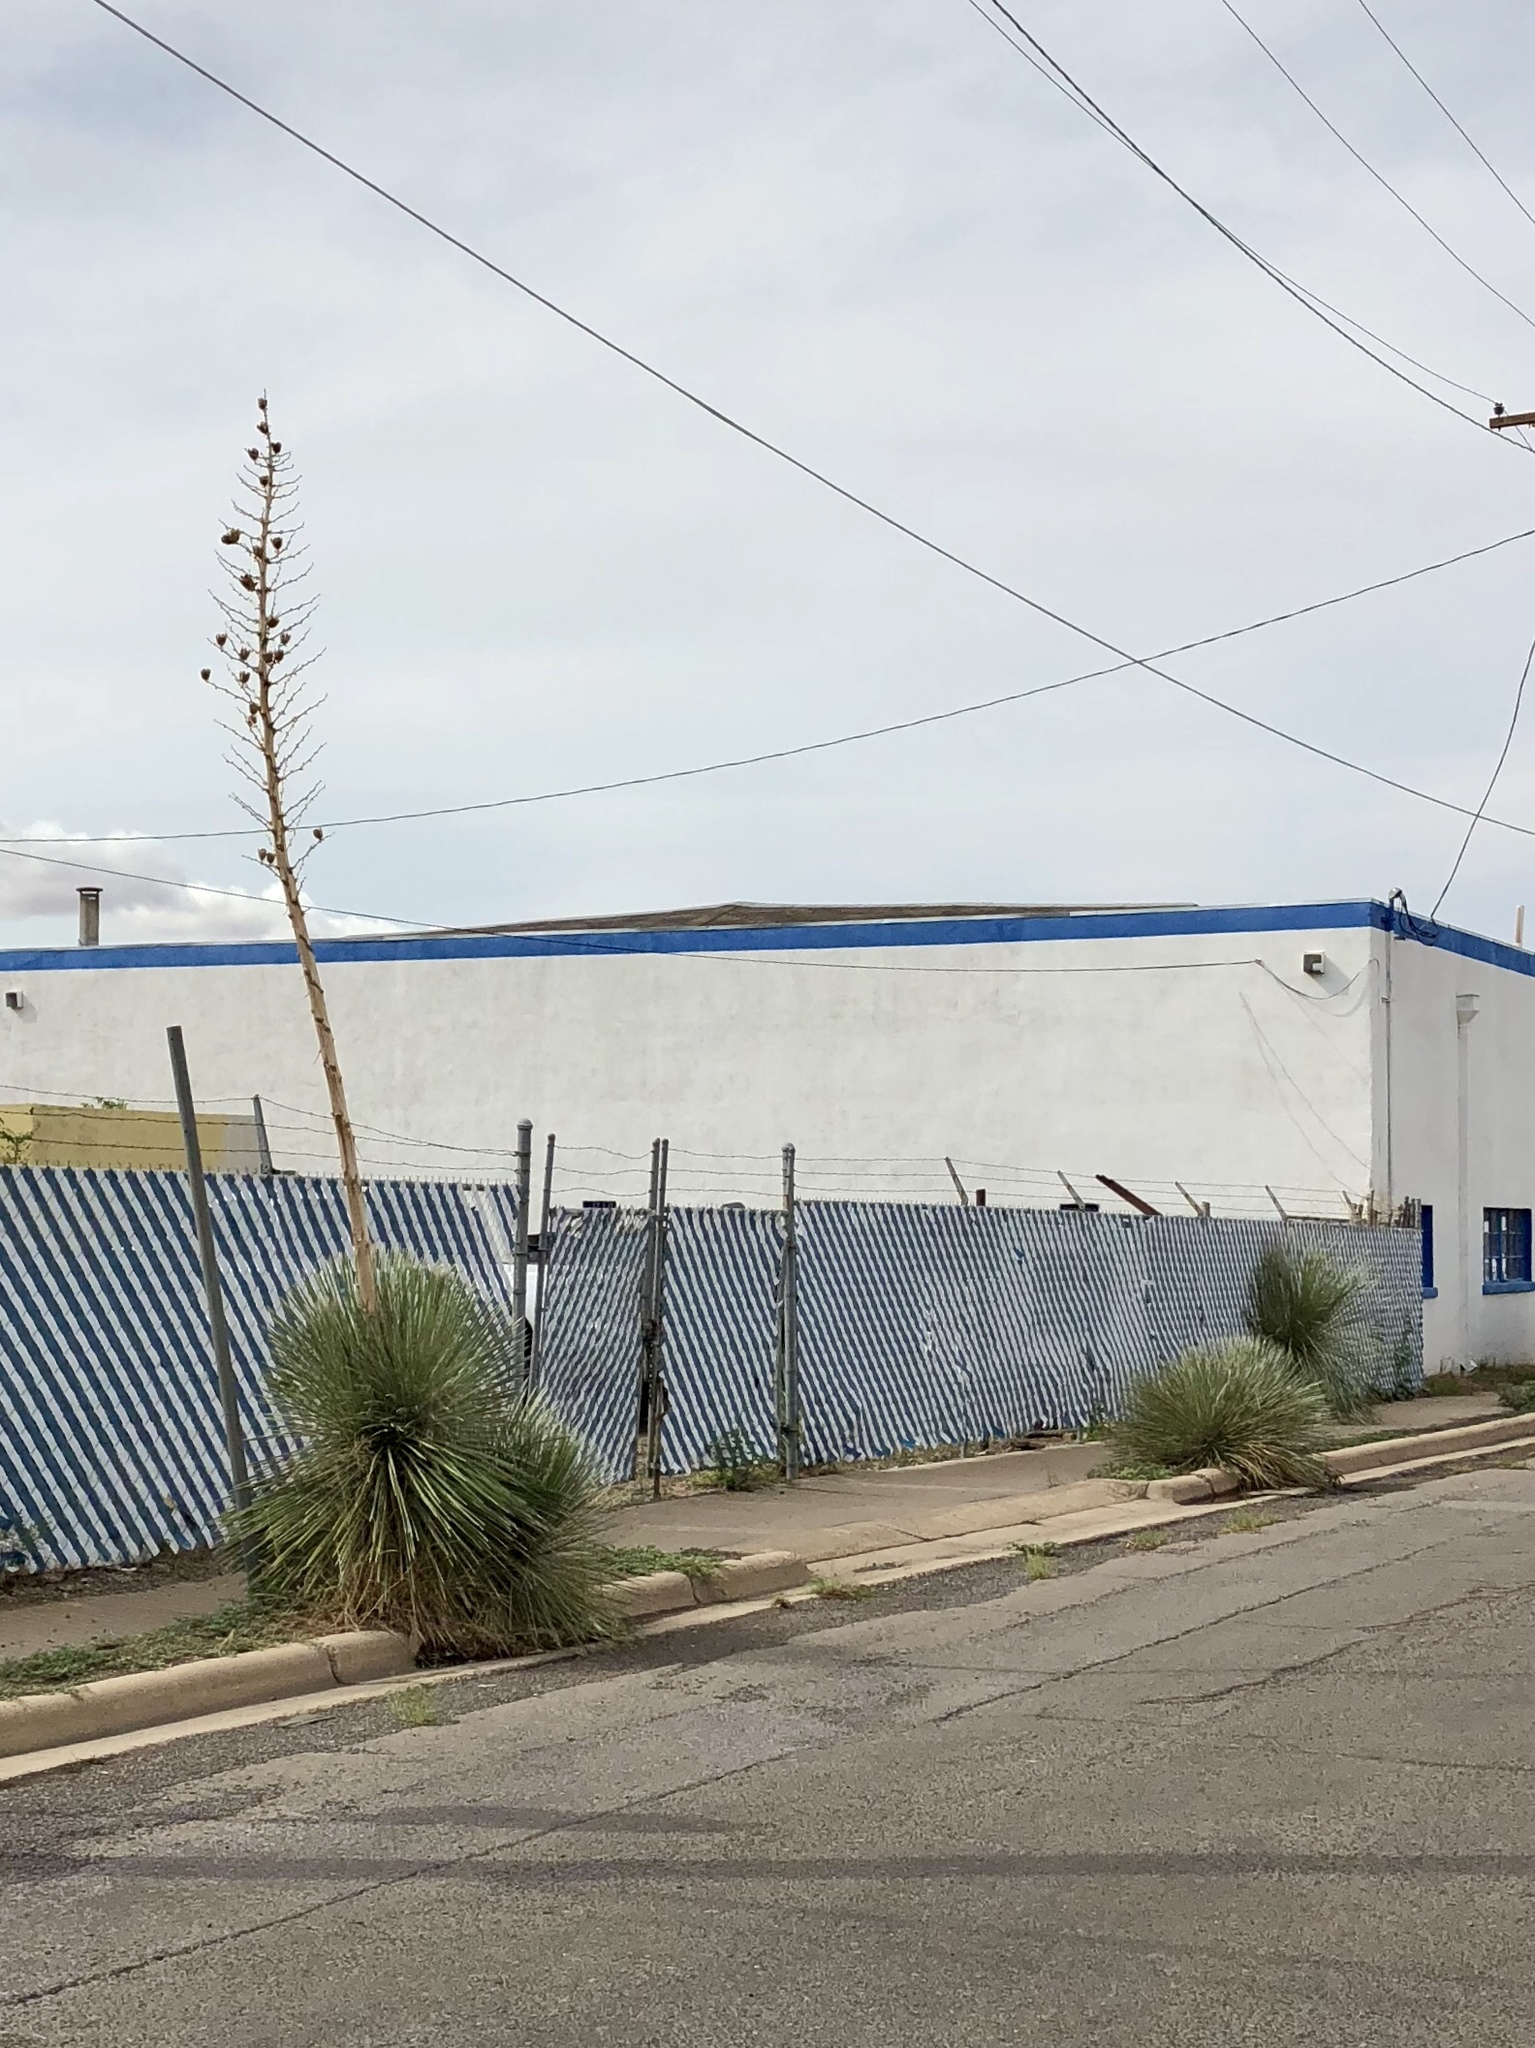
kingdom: Plantae
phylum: Tracheophyta
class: Liliopsida
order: Asparagales
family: Asparagaceae
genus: Yucca
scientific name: Yucca elata
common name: Palmella
